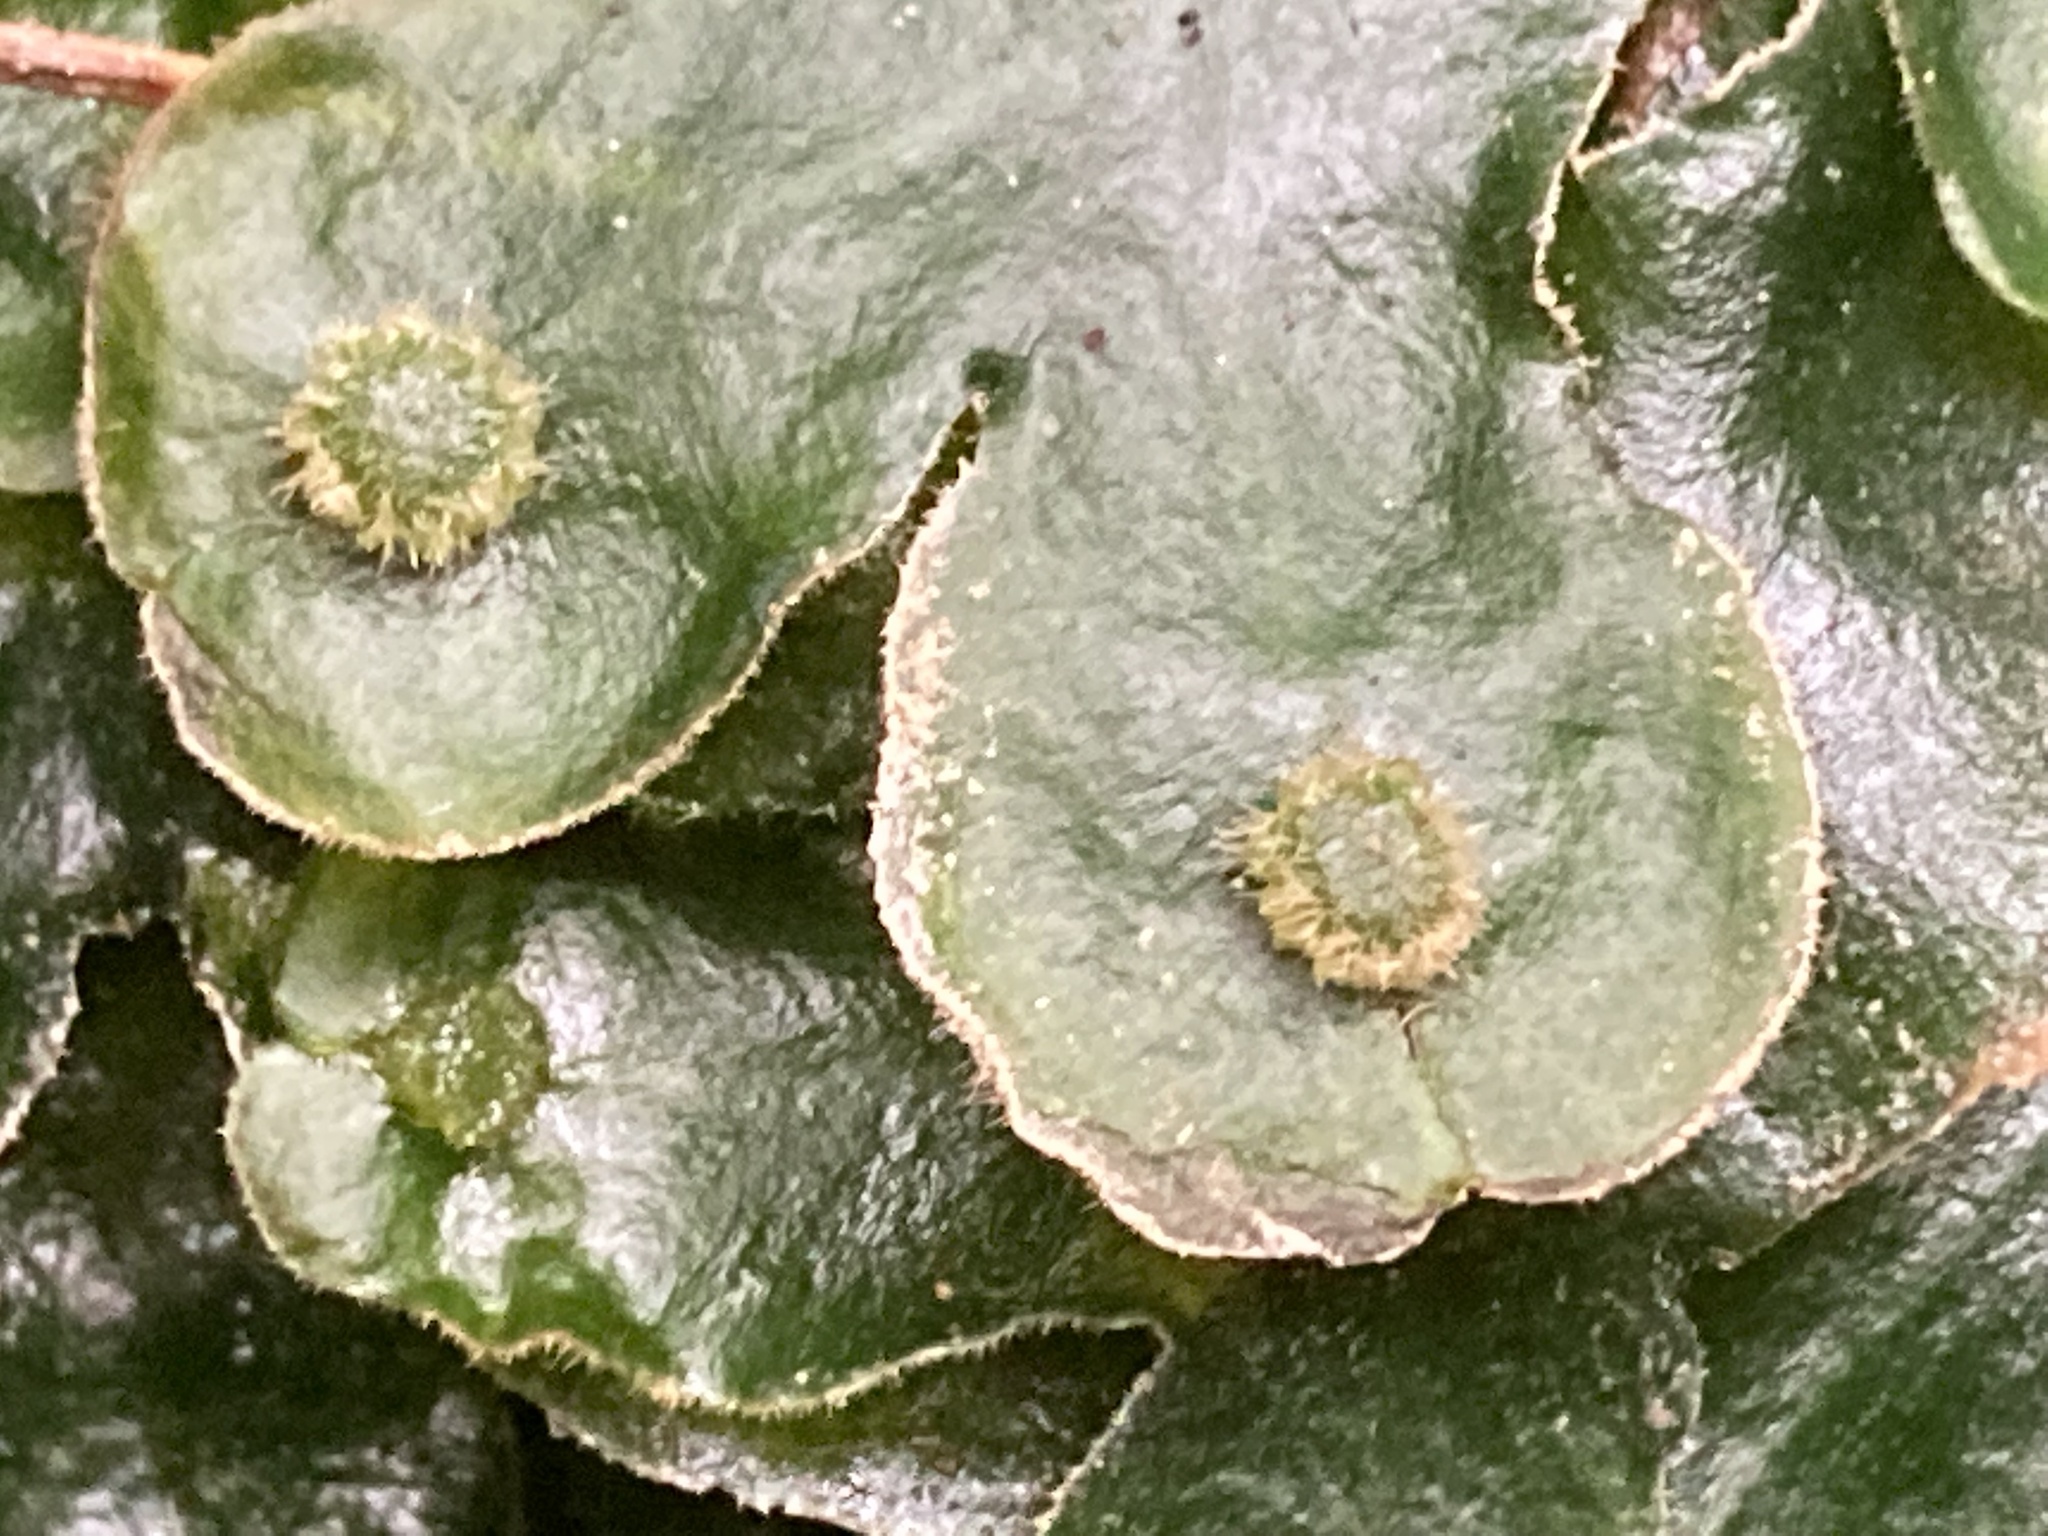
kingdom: Plantae
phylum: Marchantiophyta
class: Marchantiopsida
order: Marchantiales
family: Dumortieraceae
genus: Dumortiera
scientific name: Dumortiera hirsuta
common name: Dumortier's liverwort
